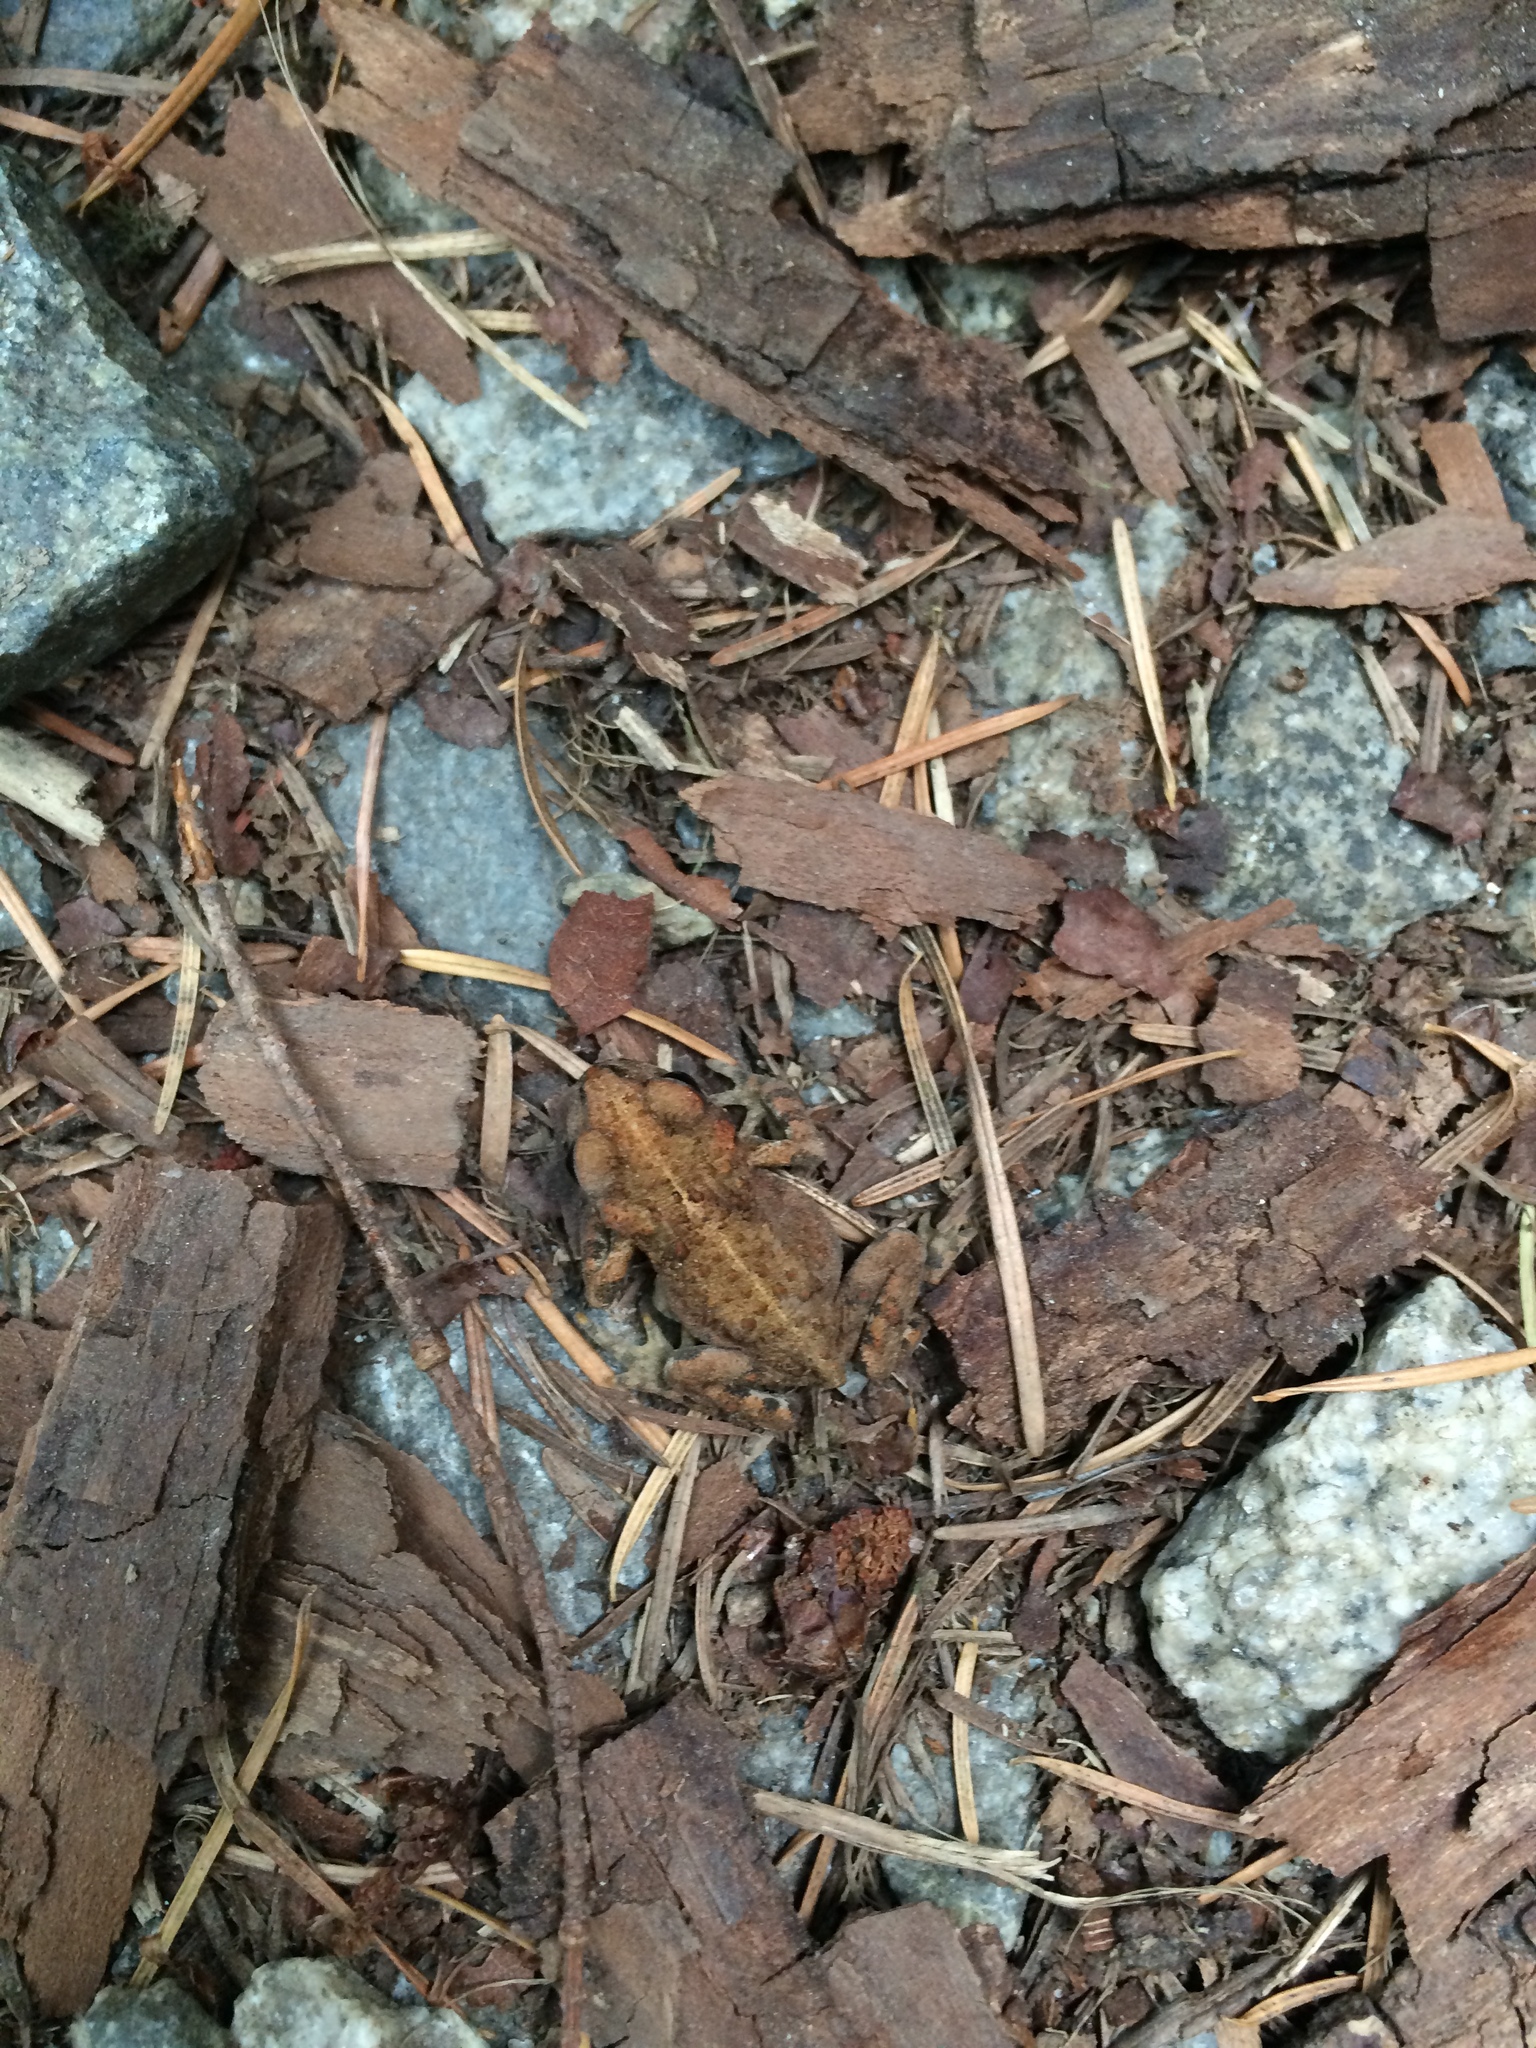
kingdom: Animalia
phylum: Chordata
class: Amphibia
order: Anura
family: Bufonidae
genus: Anaxyrus
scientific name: Anaxyrus boreas
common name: Western toad
